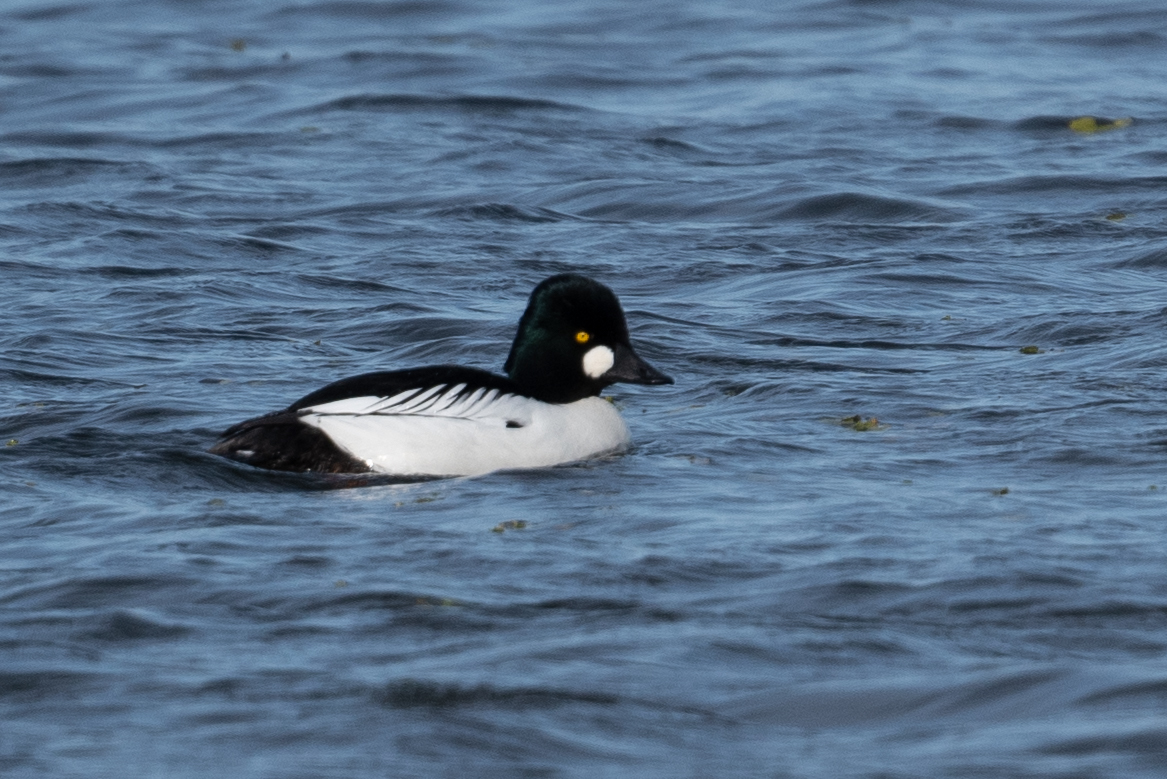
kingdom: Animalia
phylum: Chordata
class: Aves
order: Anseriformes
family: Anatidae
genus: Bucephala
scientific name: Bucephala clangula
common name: Common goldeneye
